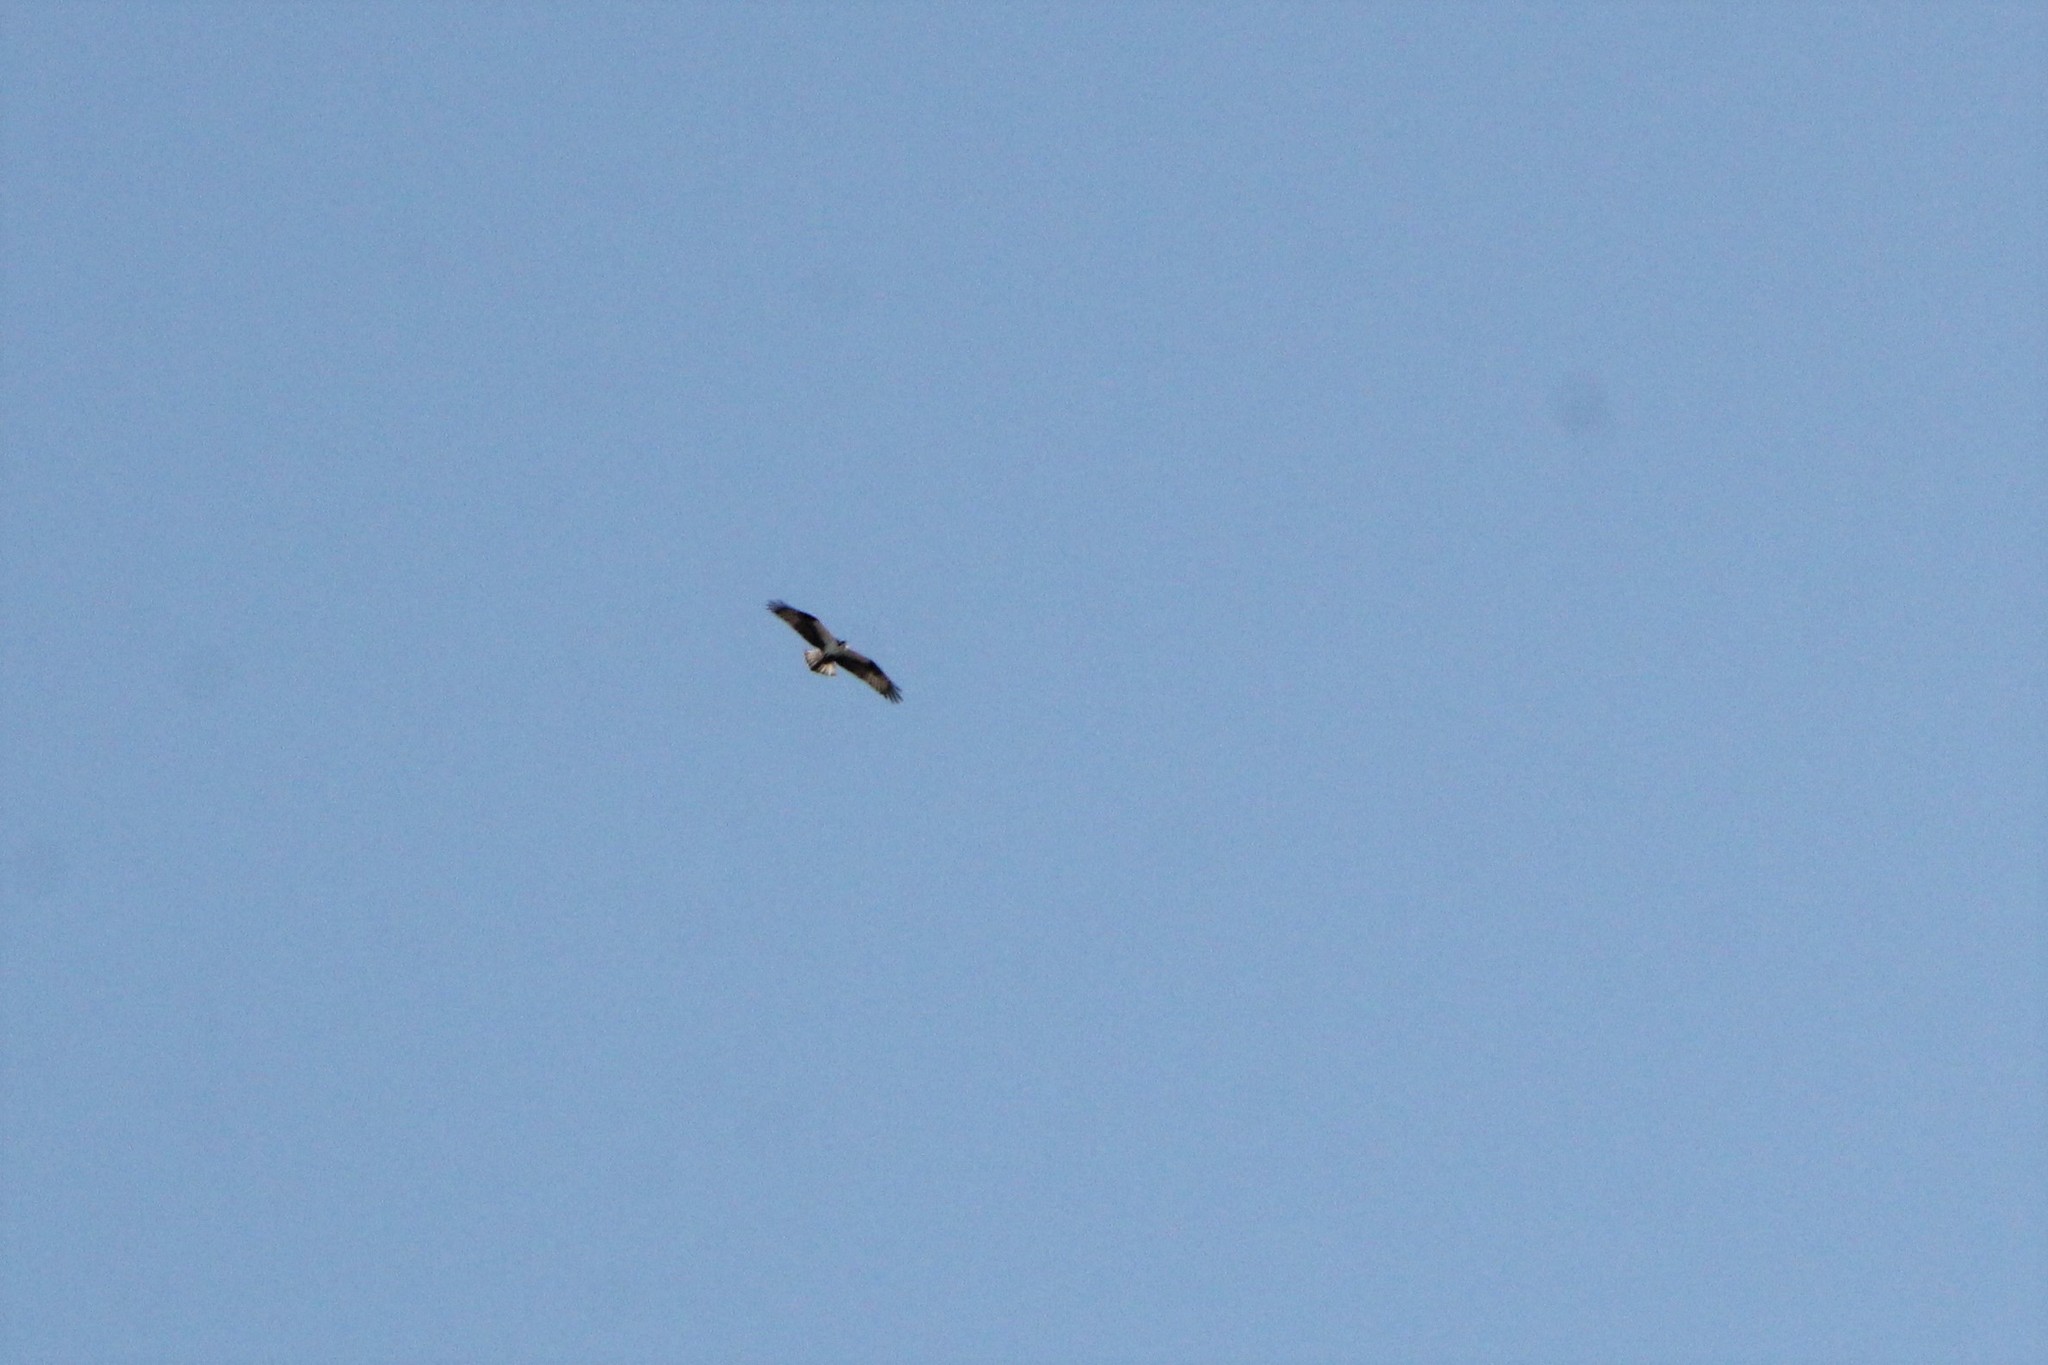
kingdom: Animalia
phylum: Chordata
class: Aves
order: Accipitriformes
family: Pandionidae
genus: Pandion
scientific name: Pandion haliaetus
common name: Osprey
